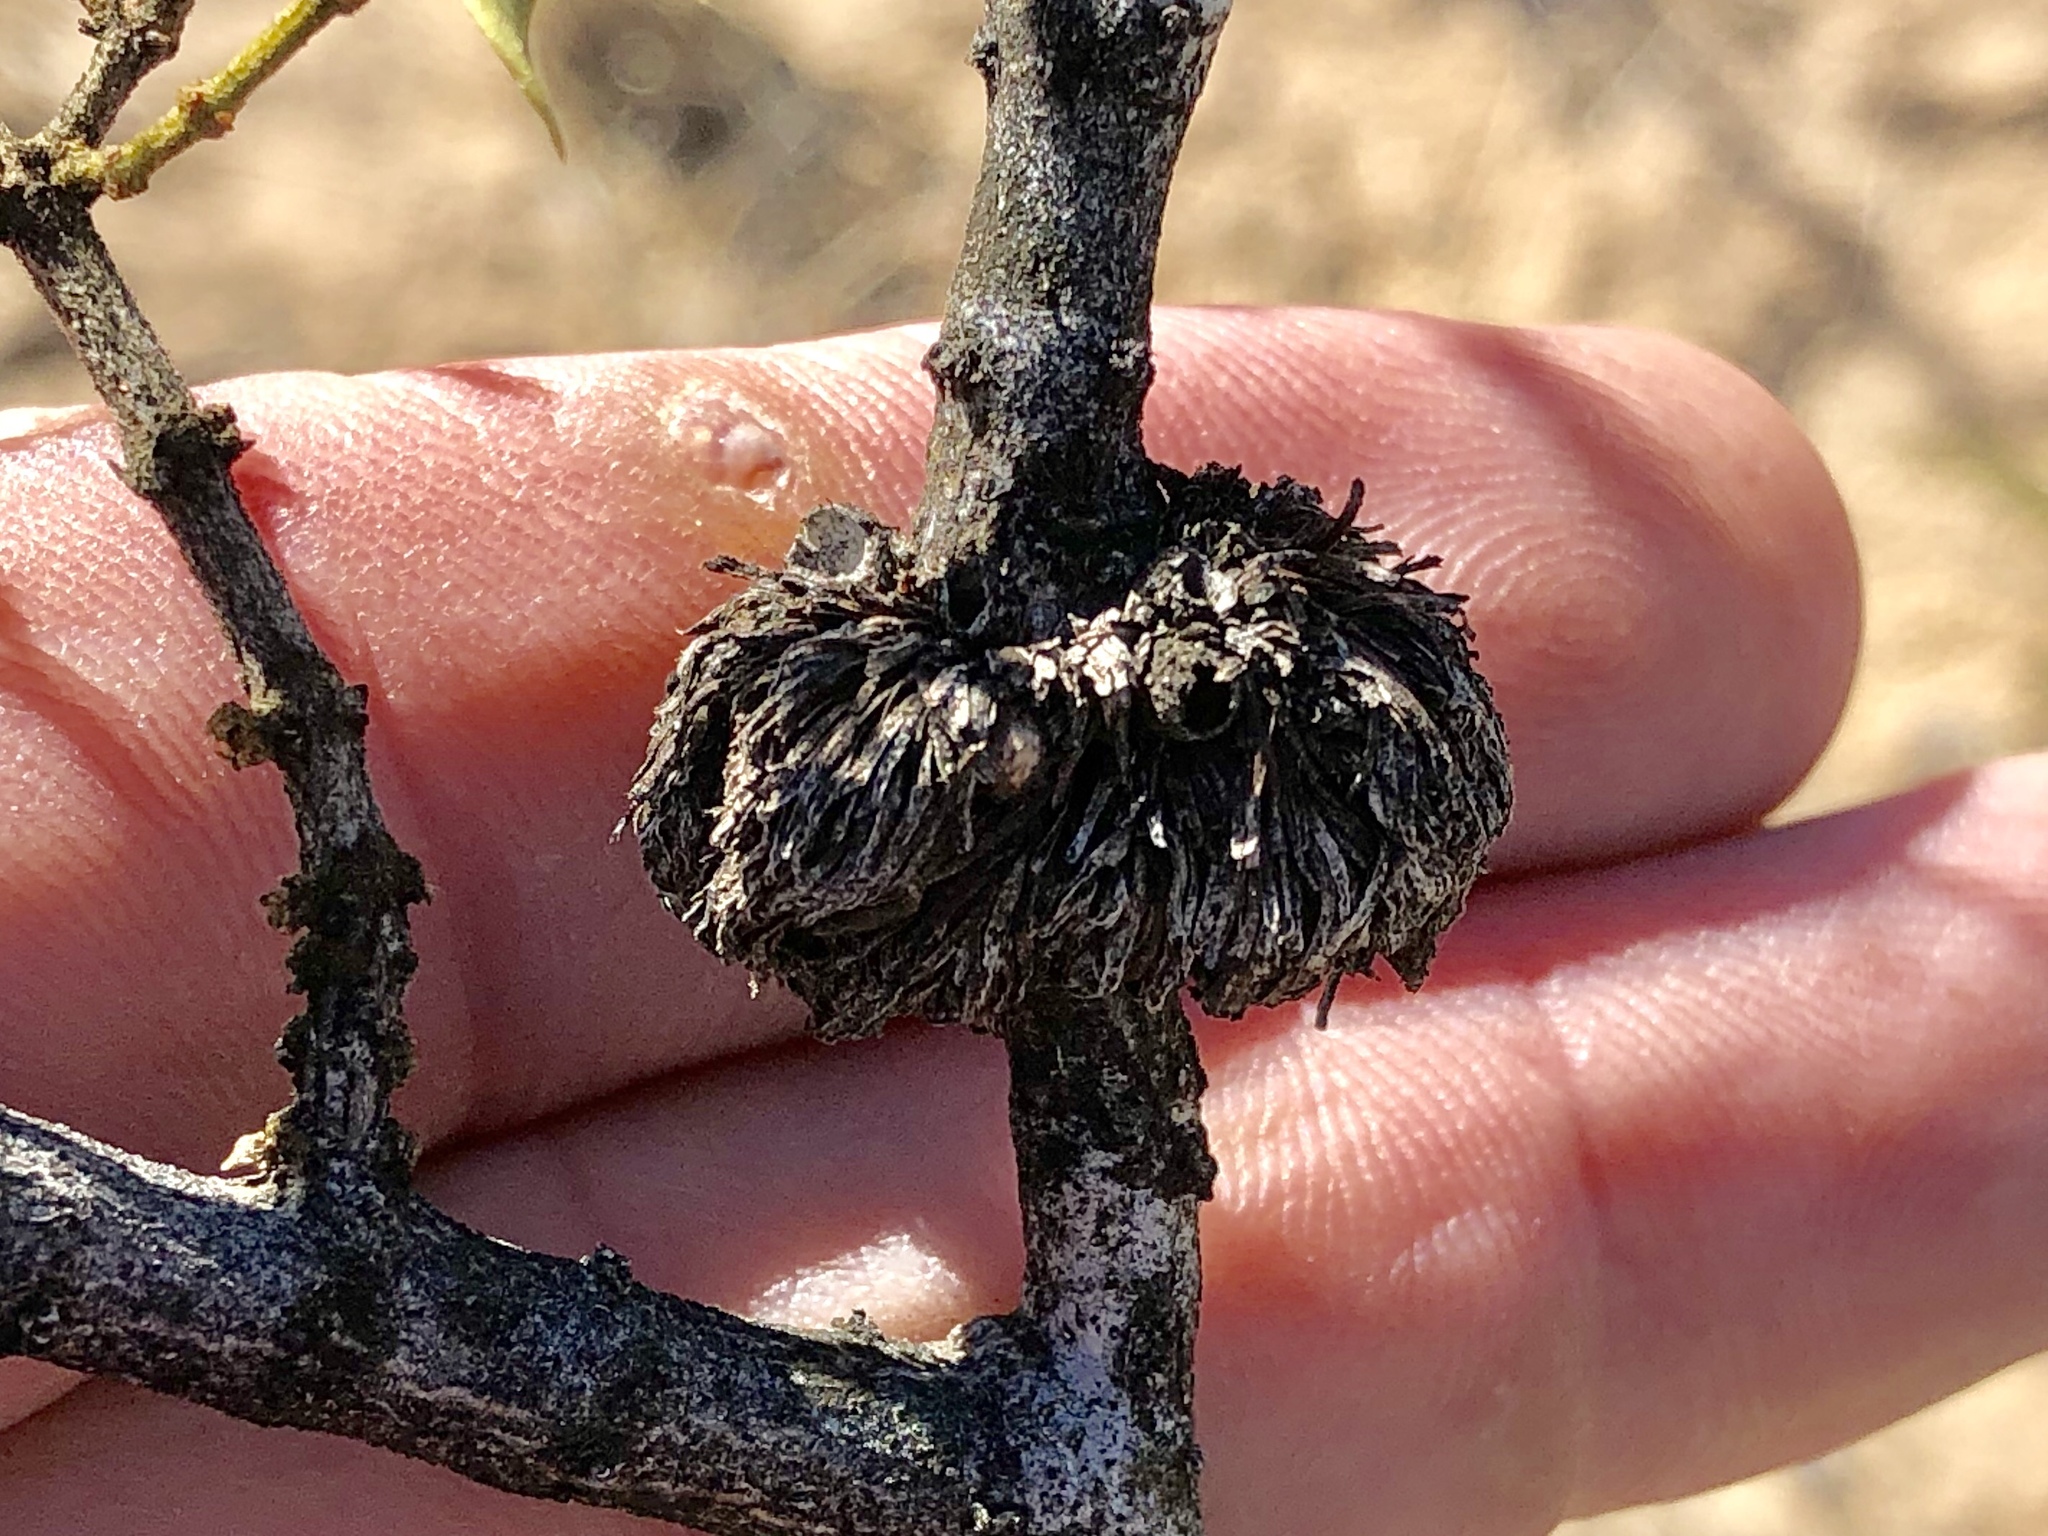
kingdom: Animalia
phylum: Arthropoda
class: Insecta
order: Diptera
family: Cecidomyiidae
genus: Asphondylia
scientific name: Asphondylia auripila
